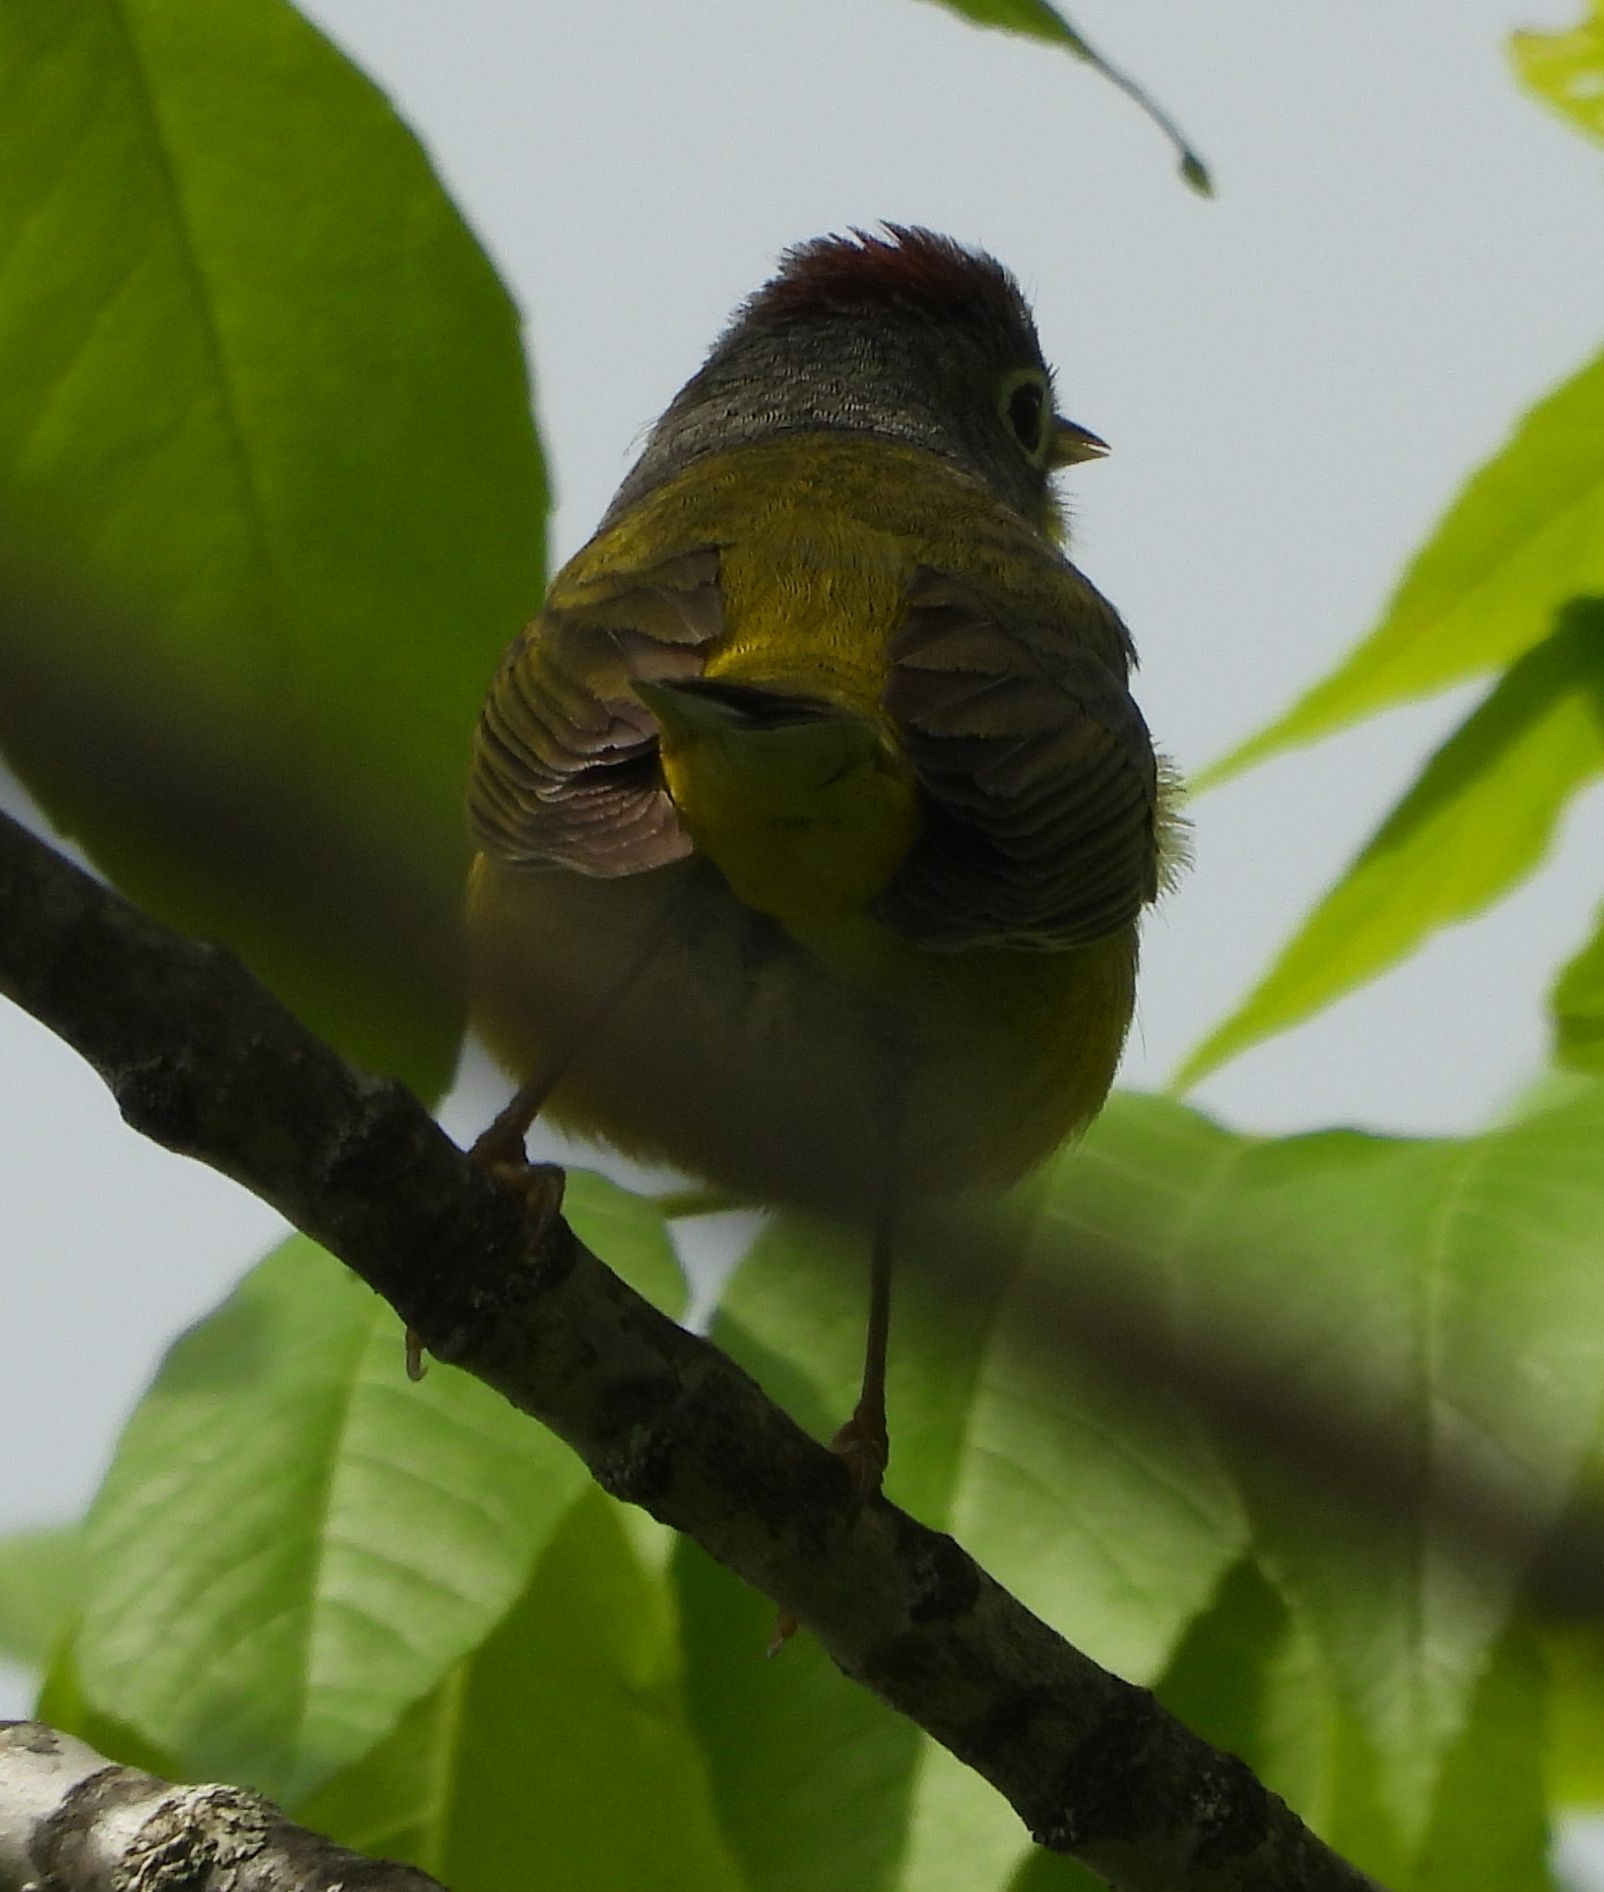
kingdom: Animalia
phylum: Chordata
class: Aves
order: Passeriformes
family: Parulidae
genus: Leiothlypis
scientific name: Leiothlypis ruficapilla
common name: Nashville warbler
